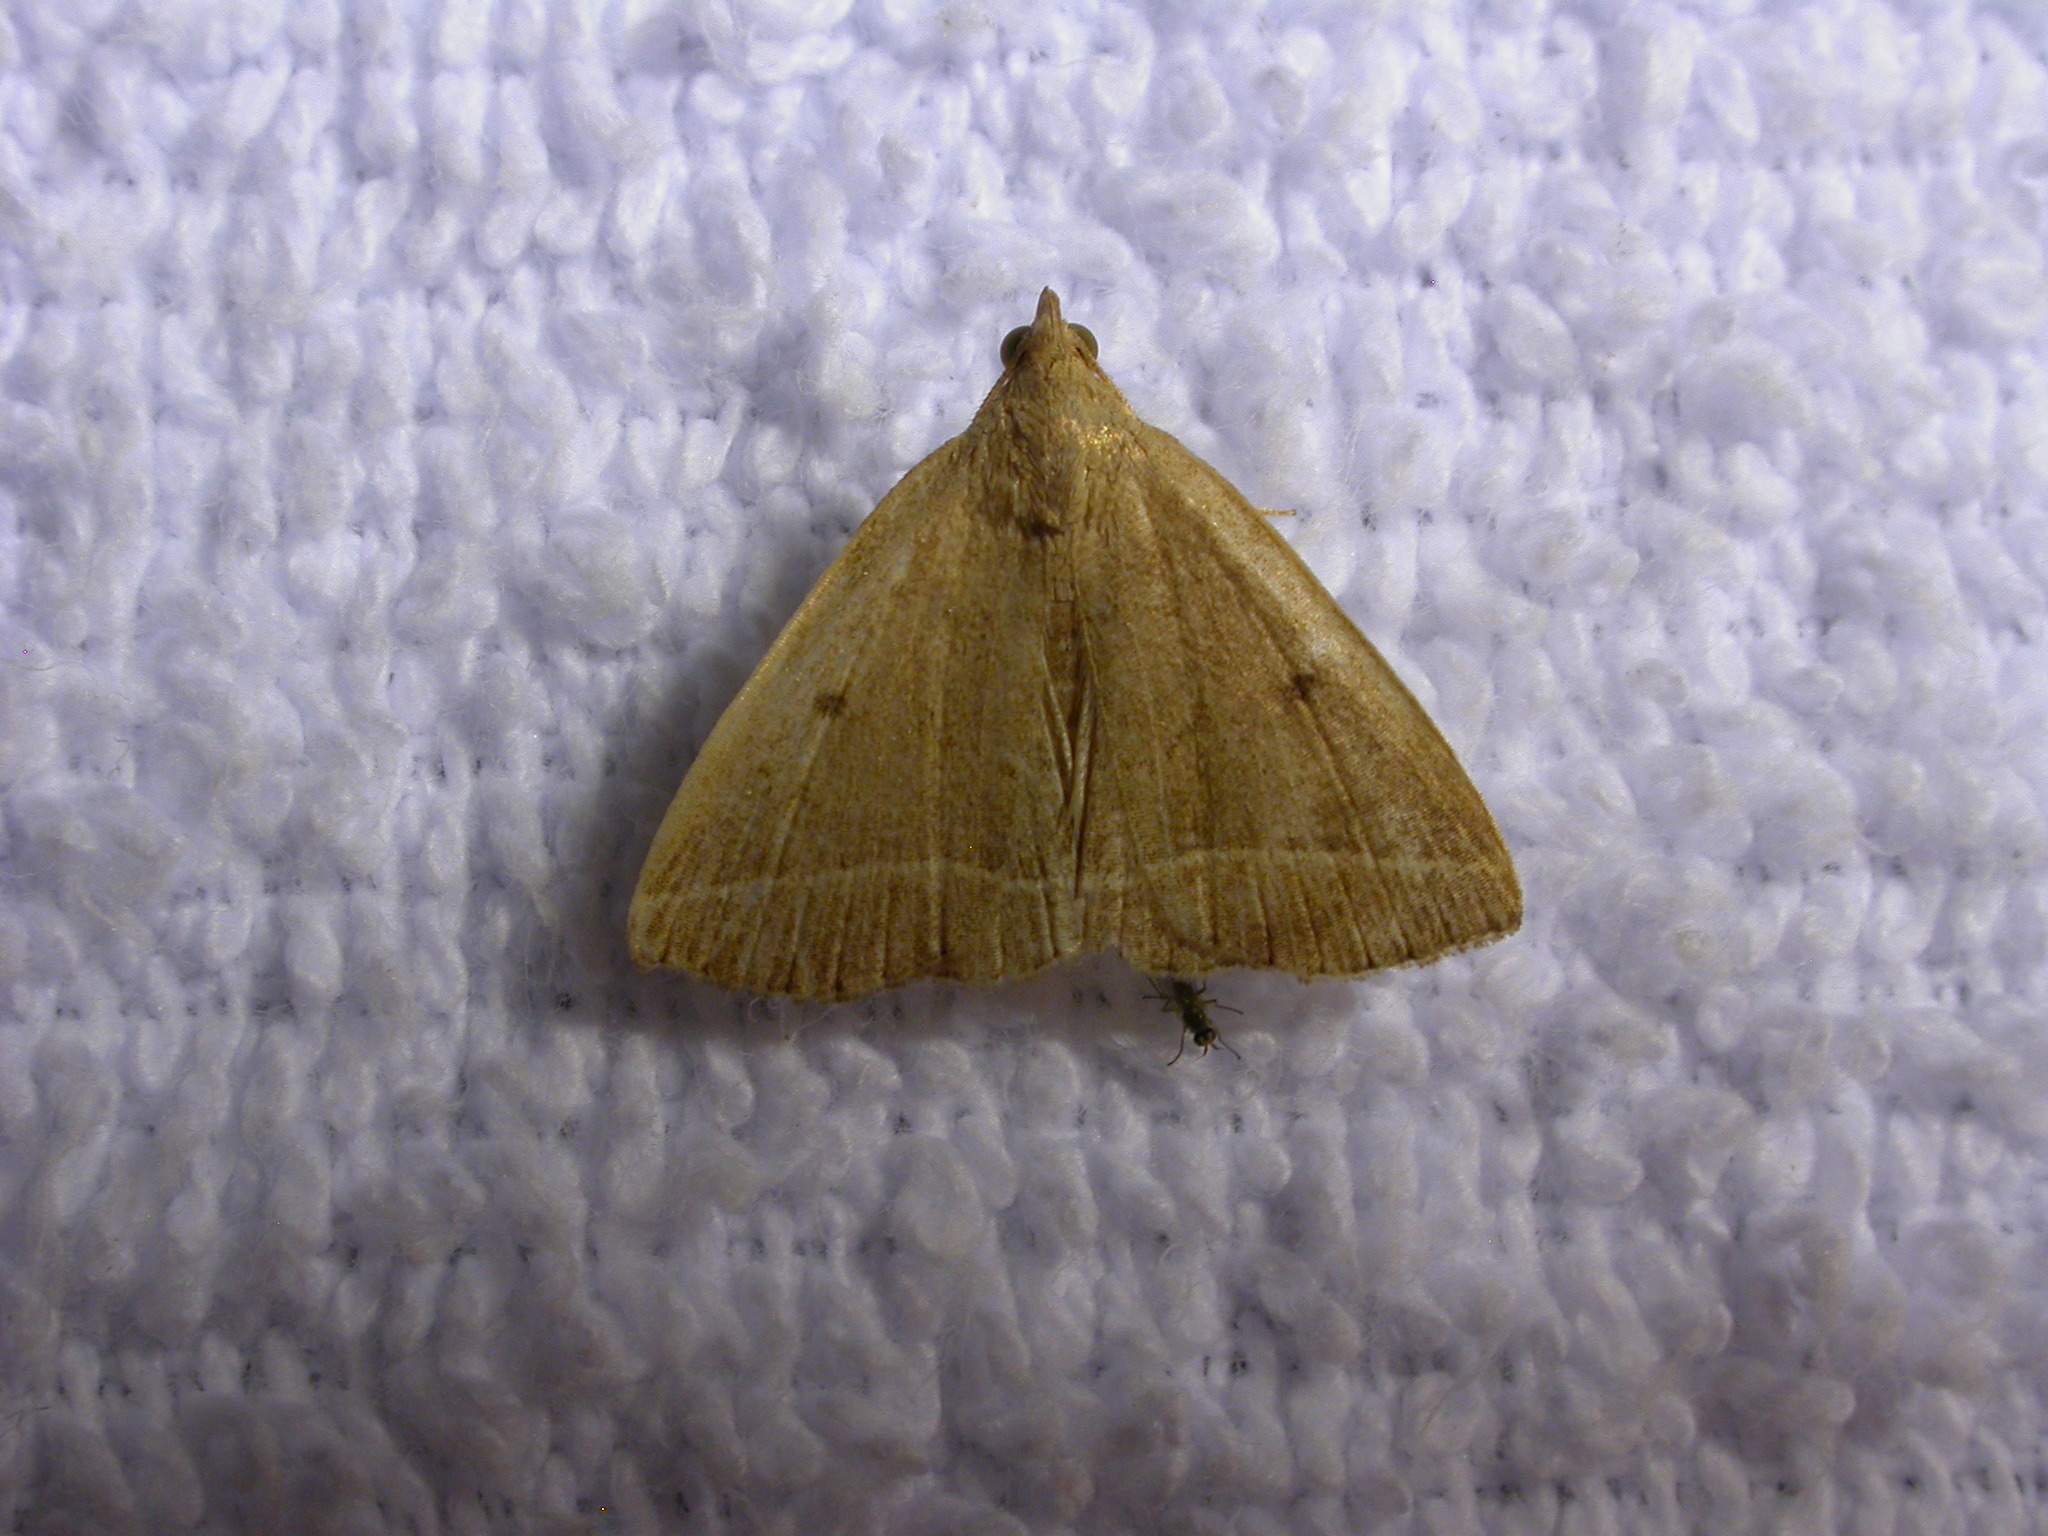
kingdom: Animalia
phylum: Arthropoda
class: Insecta
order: Lepidoptera
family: Erebidae
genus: Zanclognatha
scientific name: Zanclognatha marcidilinea
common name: Yellowish fan-foot
